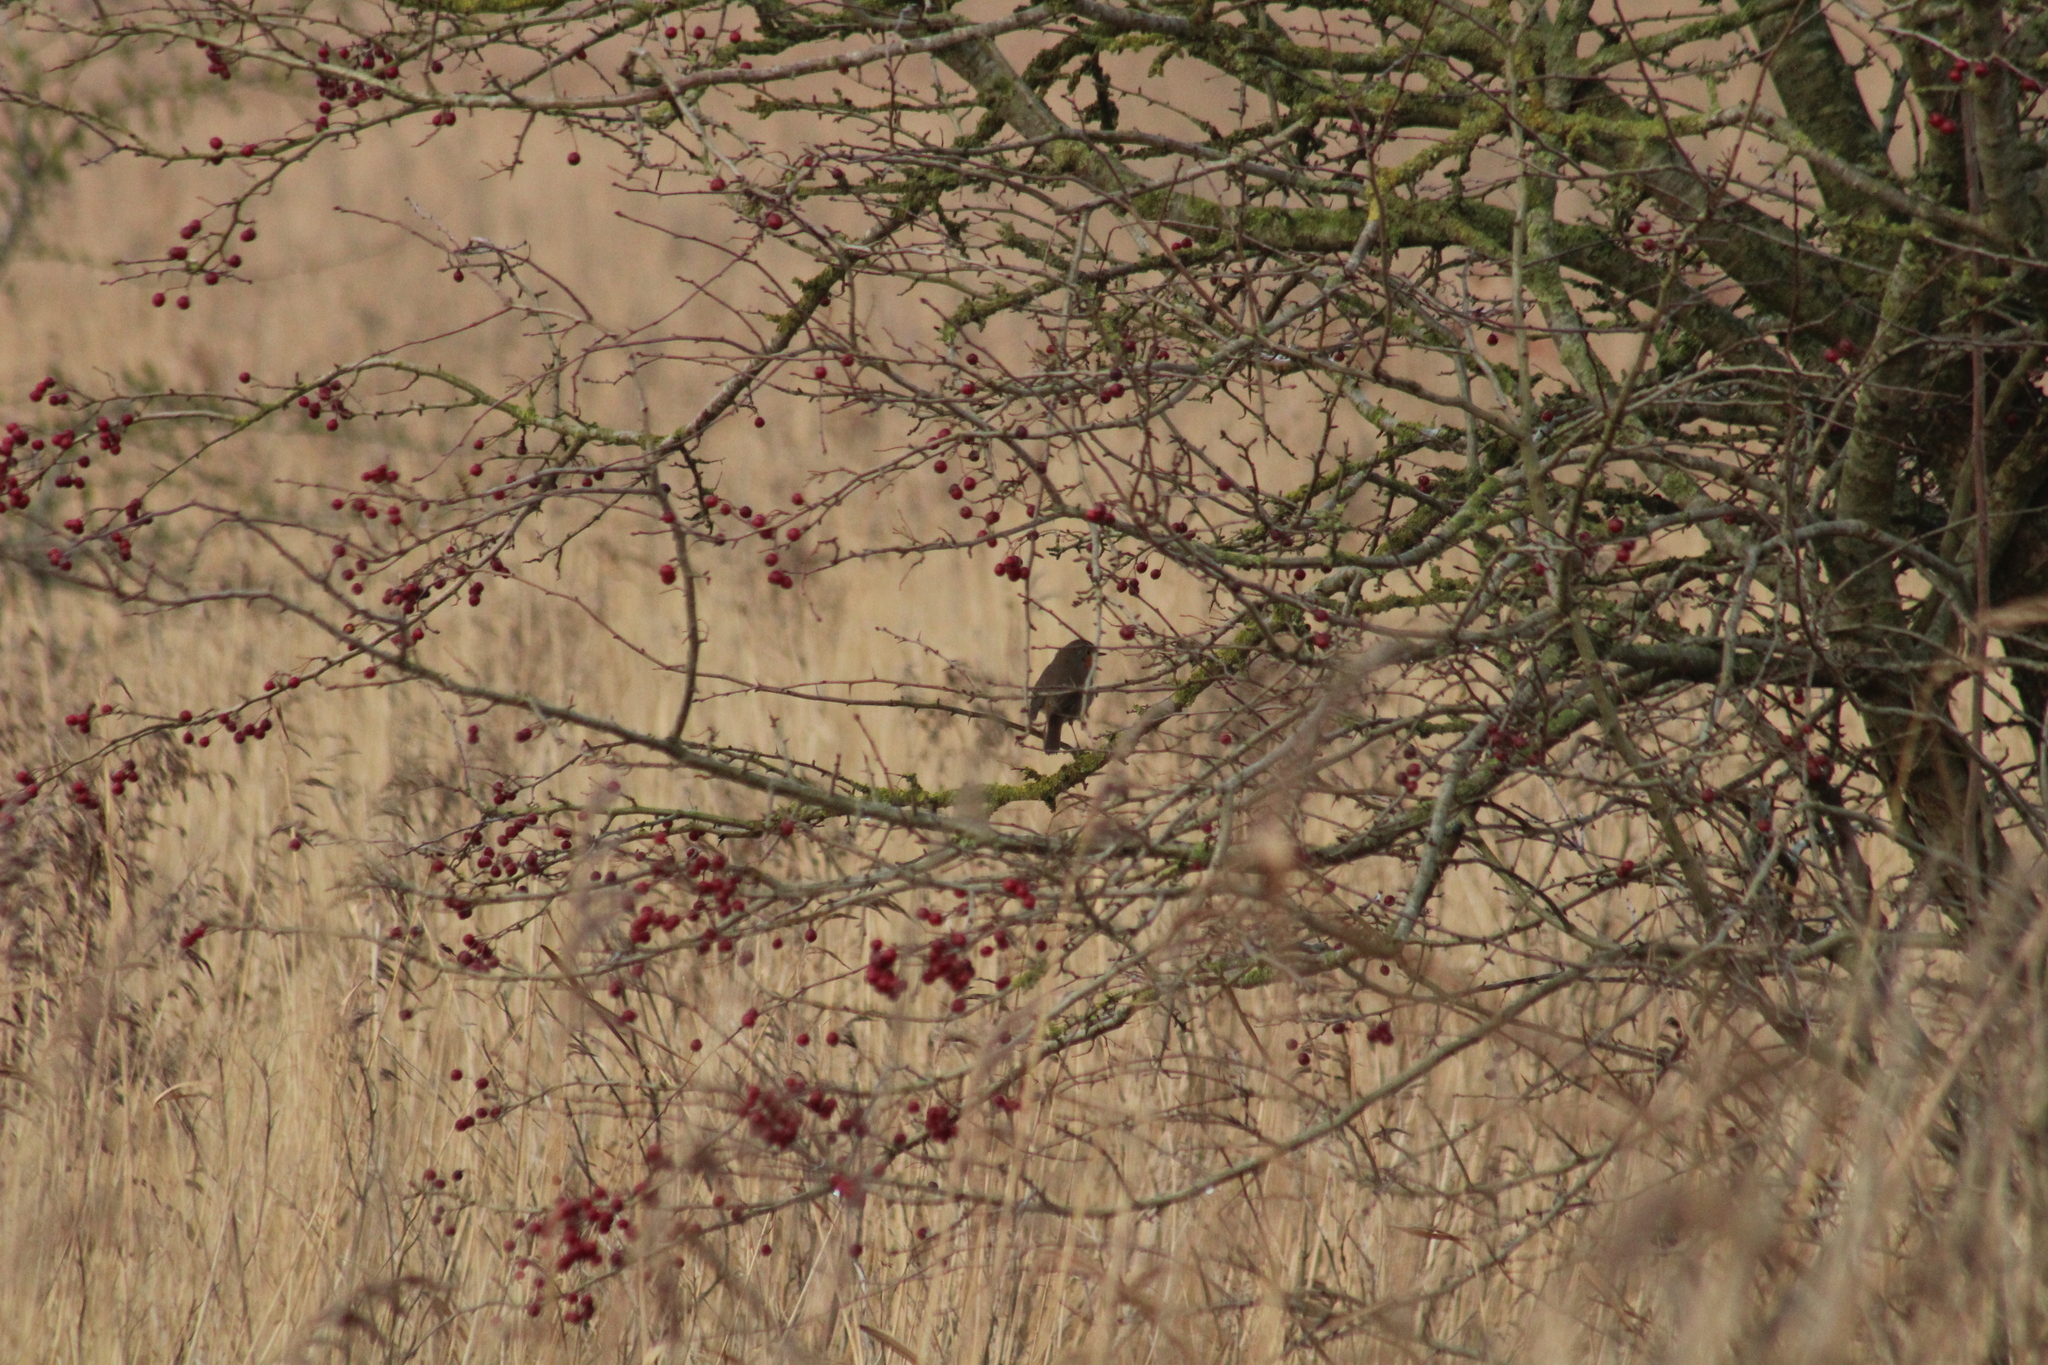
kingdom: Animalia
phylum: Chordata
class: Aves
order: Passeriformes
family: Muscicapidae
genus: Erithacus
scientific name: Erithacus rubecula
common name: European robin
